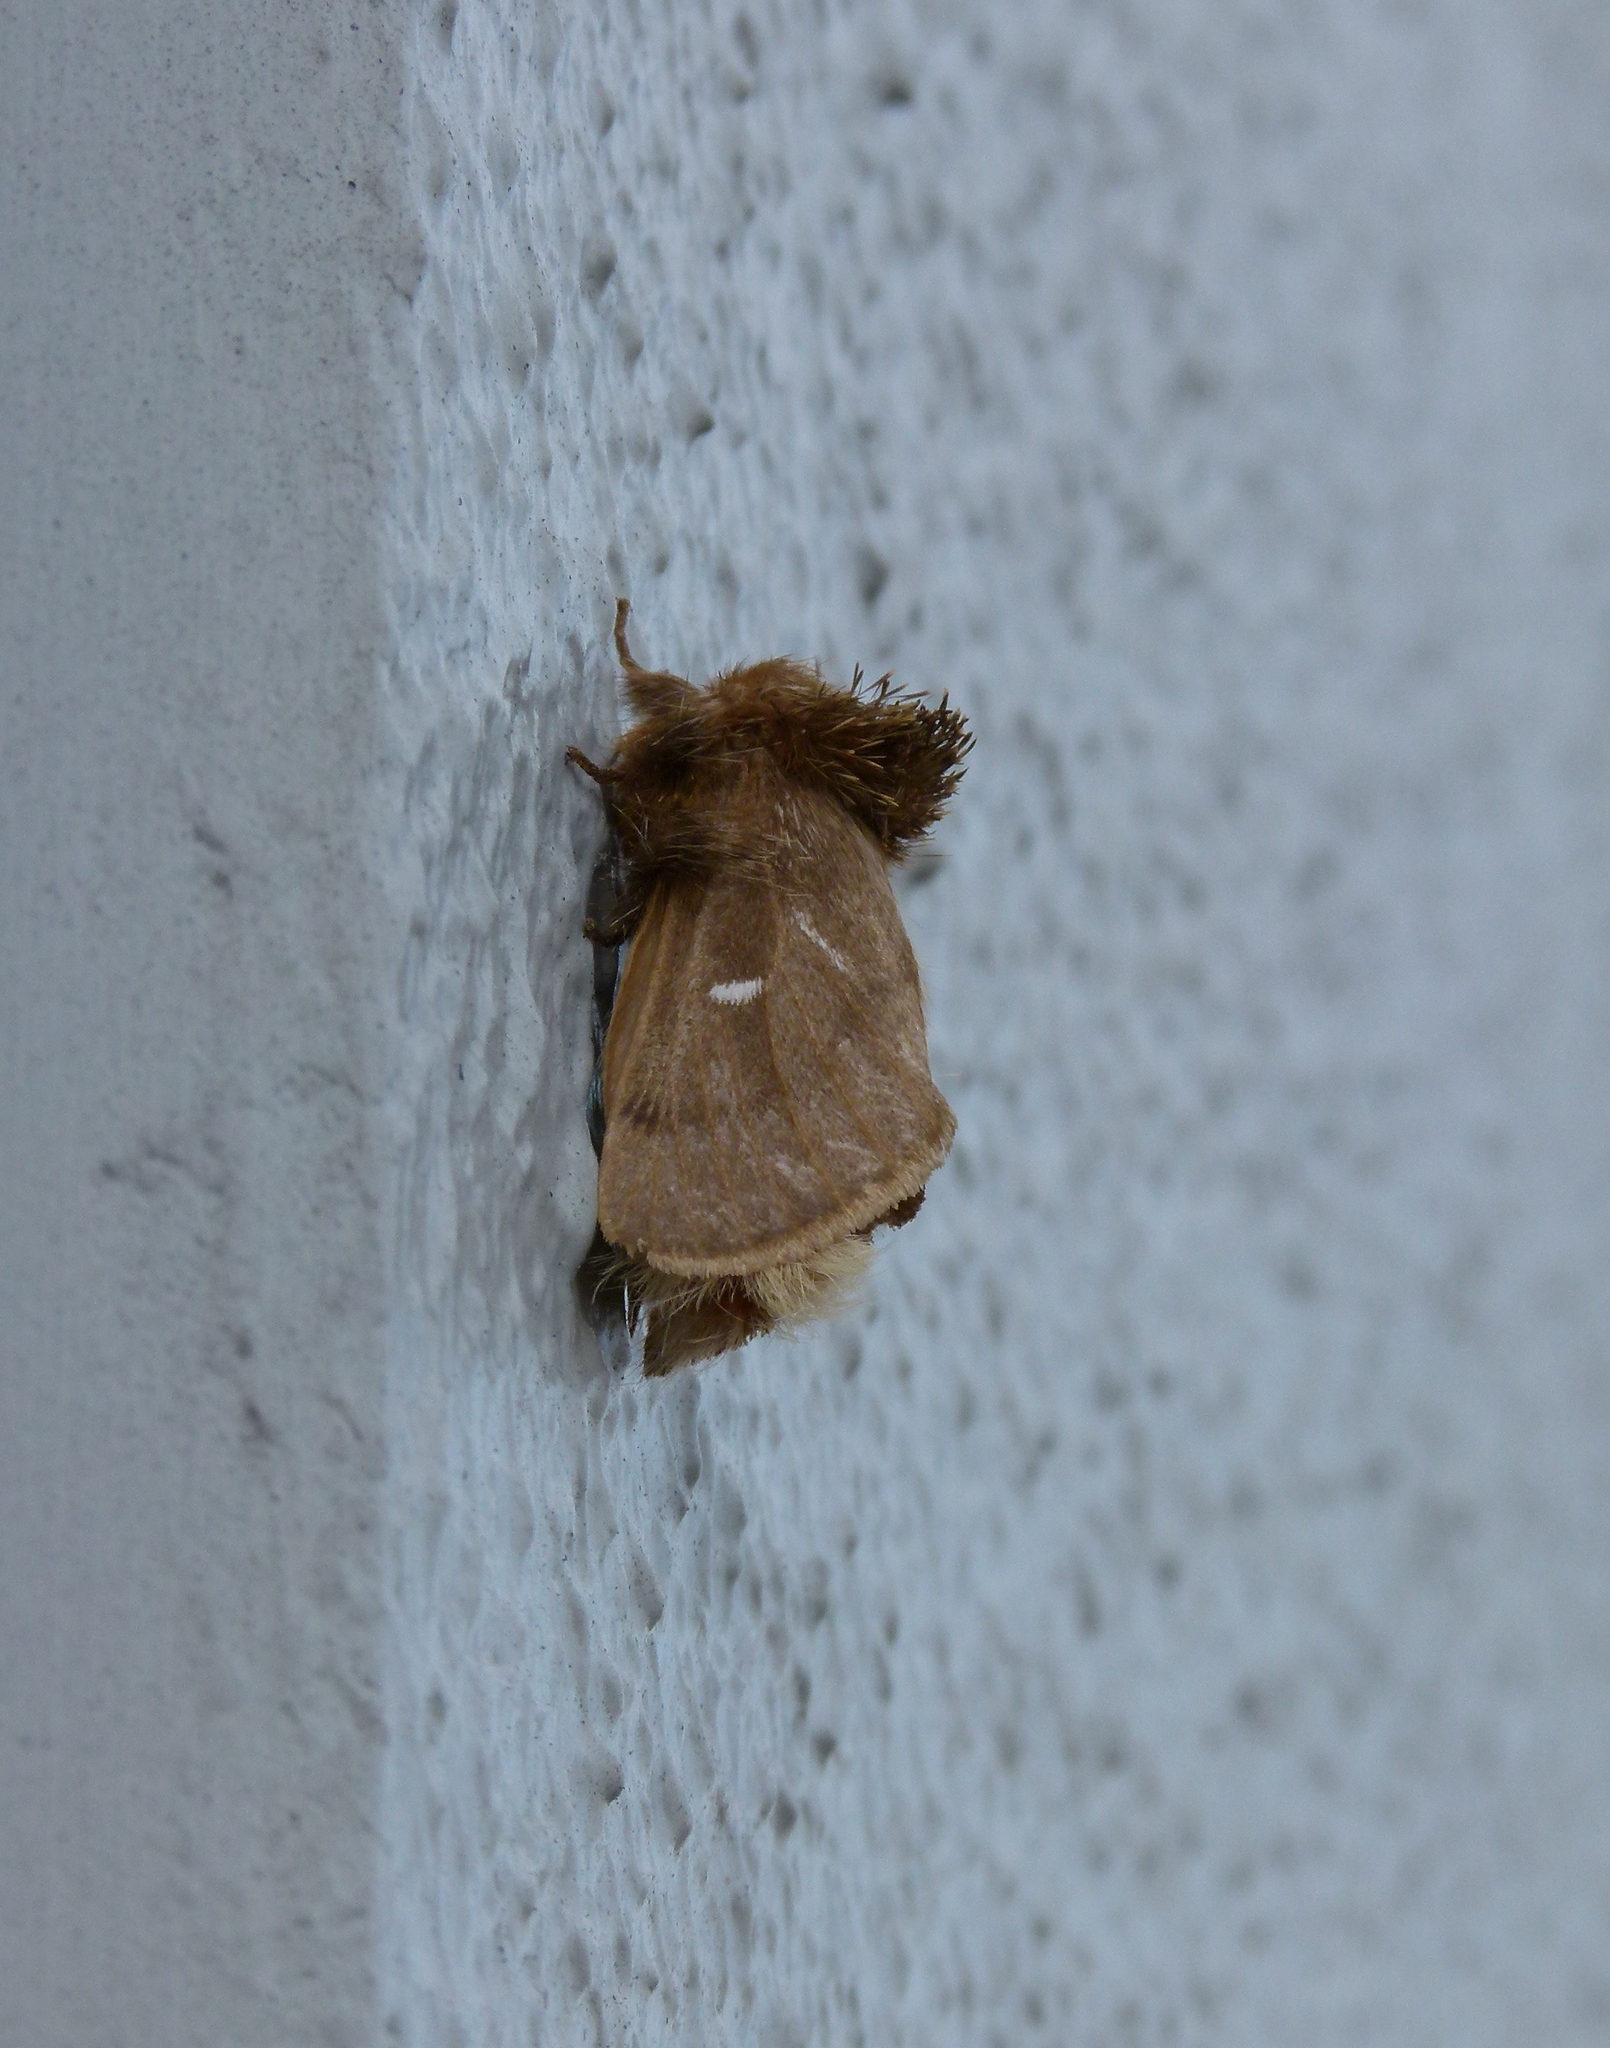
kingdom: Animalia
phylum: Arthropoda
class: Insecta
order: Lepidoptera
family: Notodontidae
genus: Ochrogaster
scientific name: Ochrogaster lunifer
